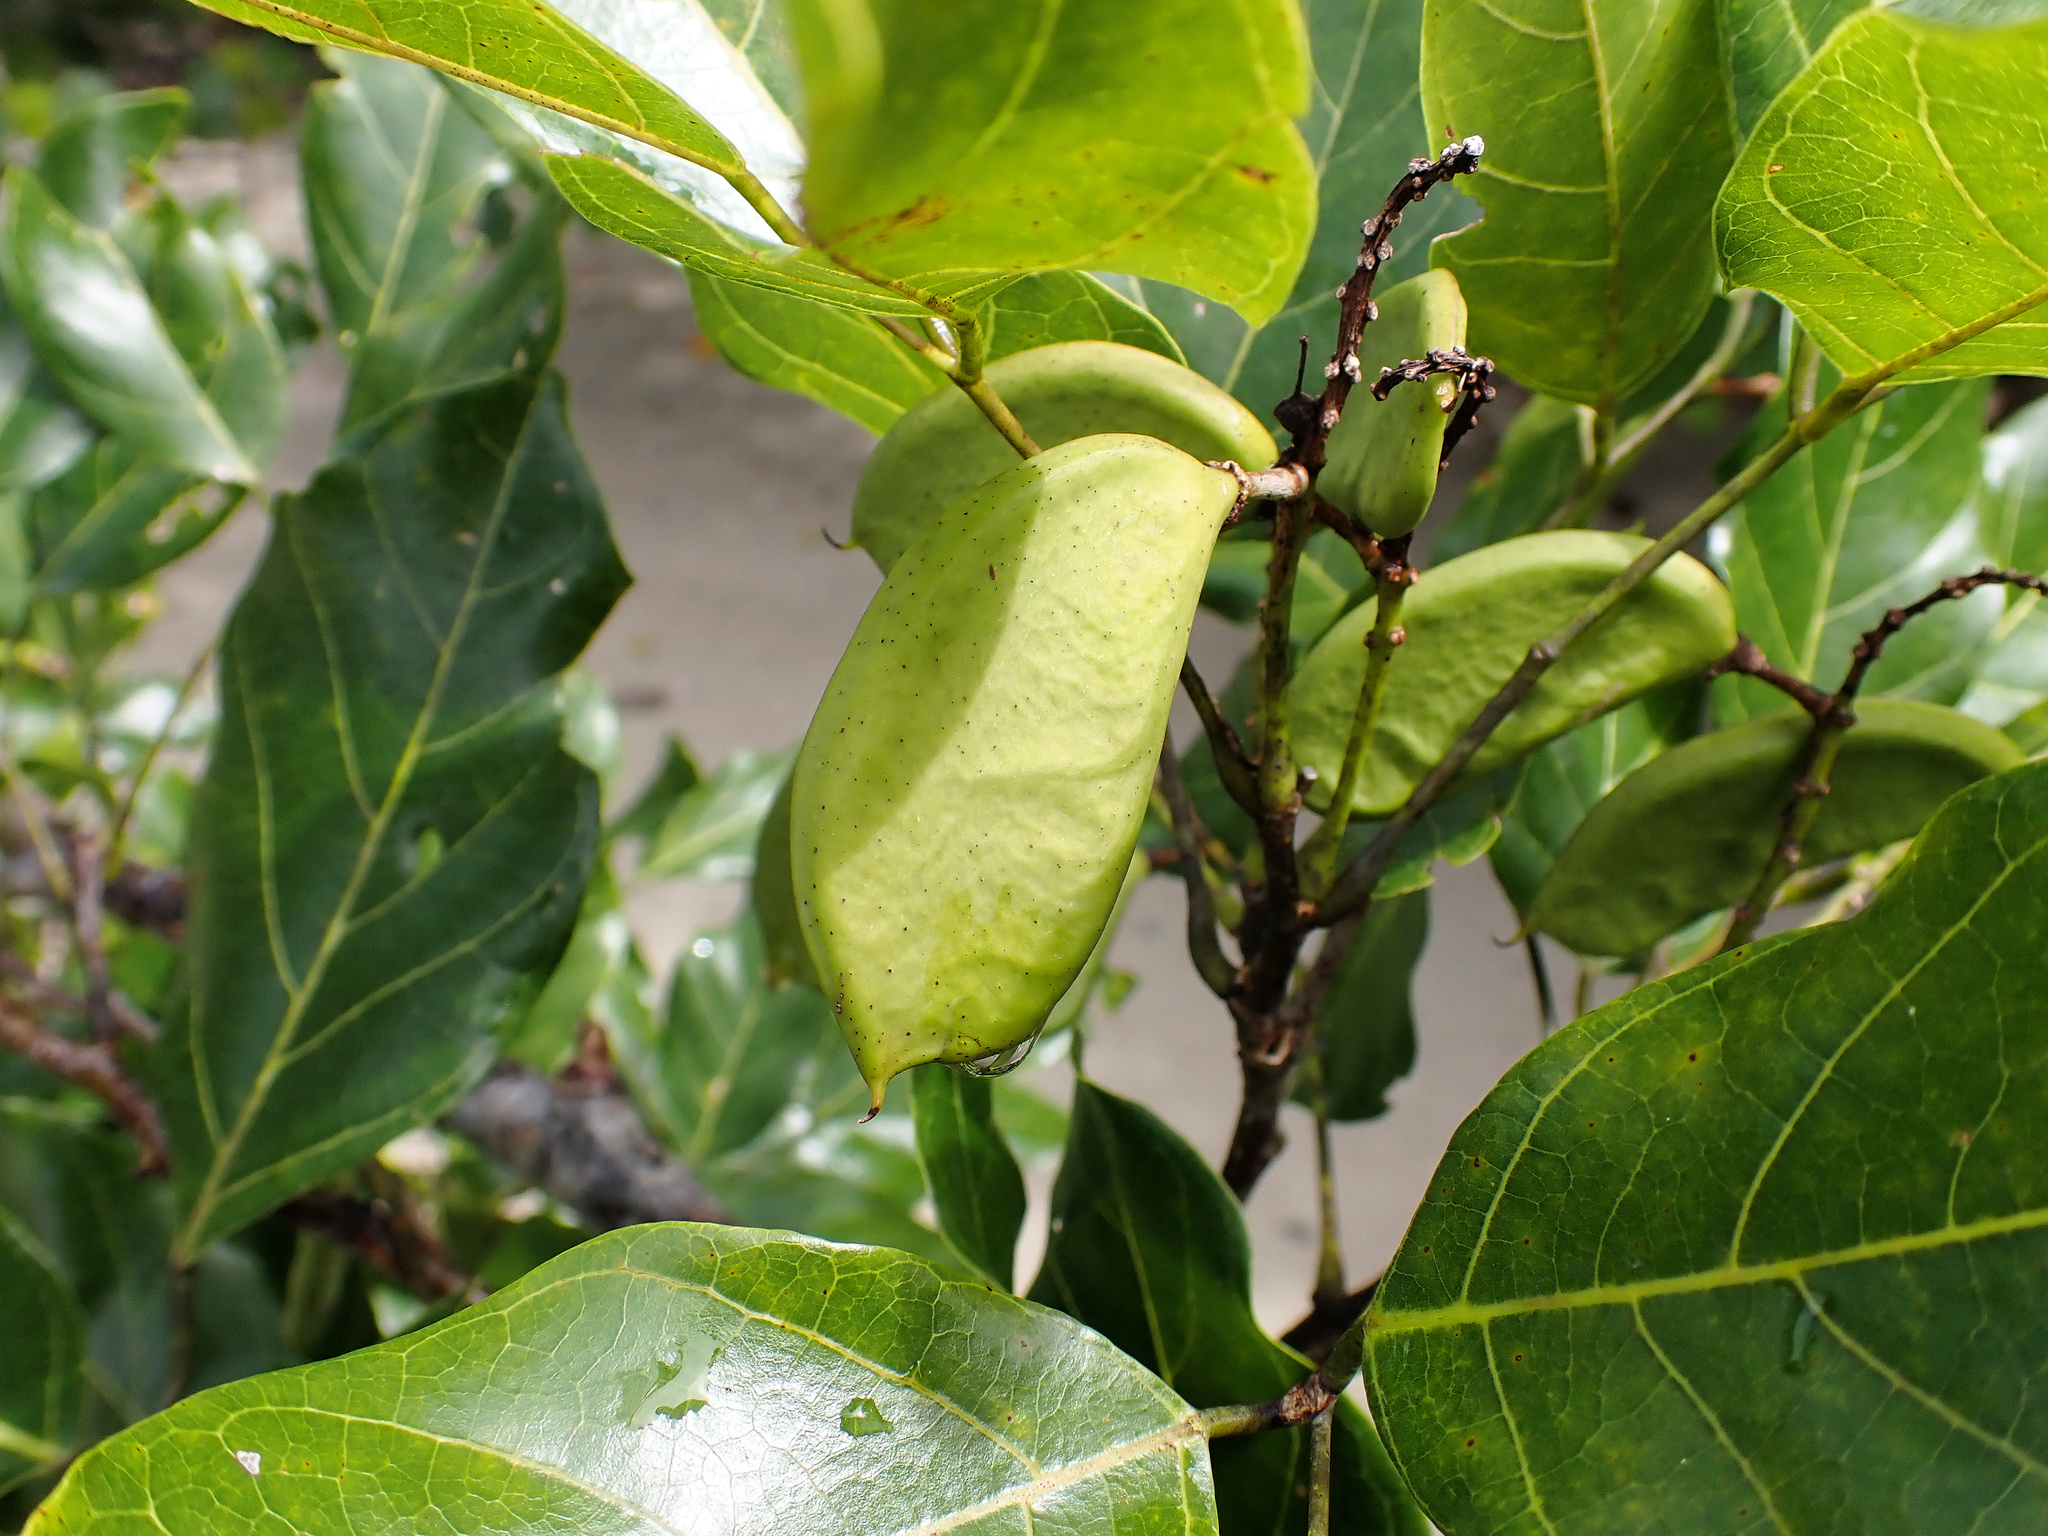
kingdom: Plantae
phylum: Tracheophyta
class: Magnoliopsida
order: Fabales
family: Fabaceae
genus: Pongamia
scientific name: Pongamia pinnata
